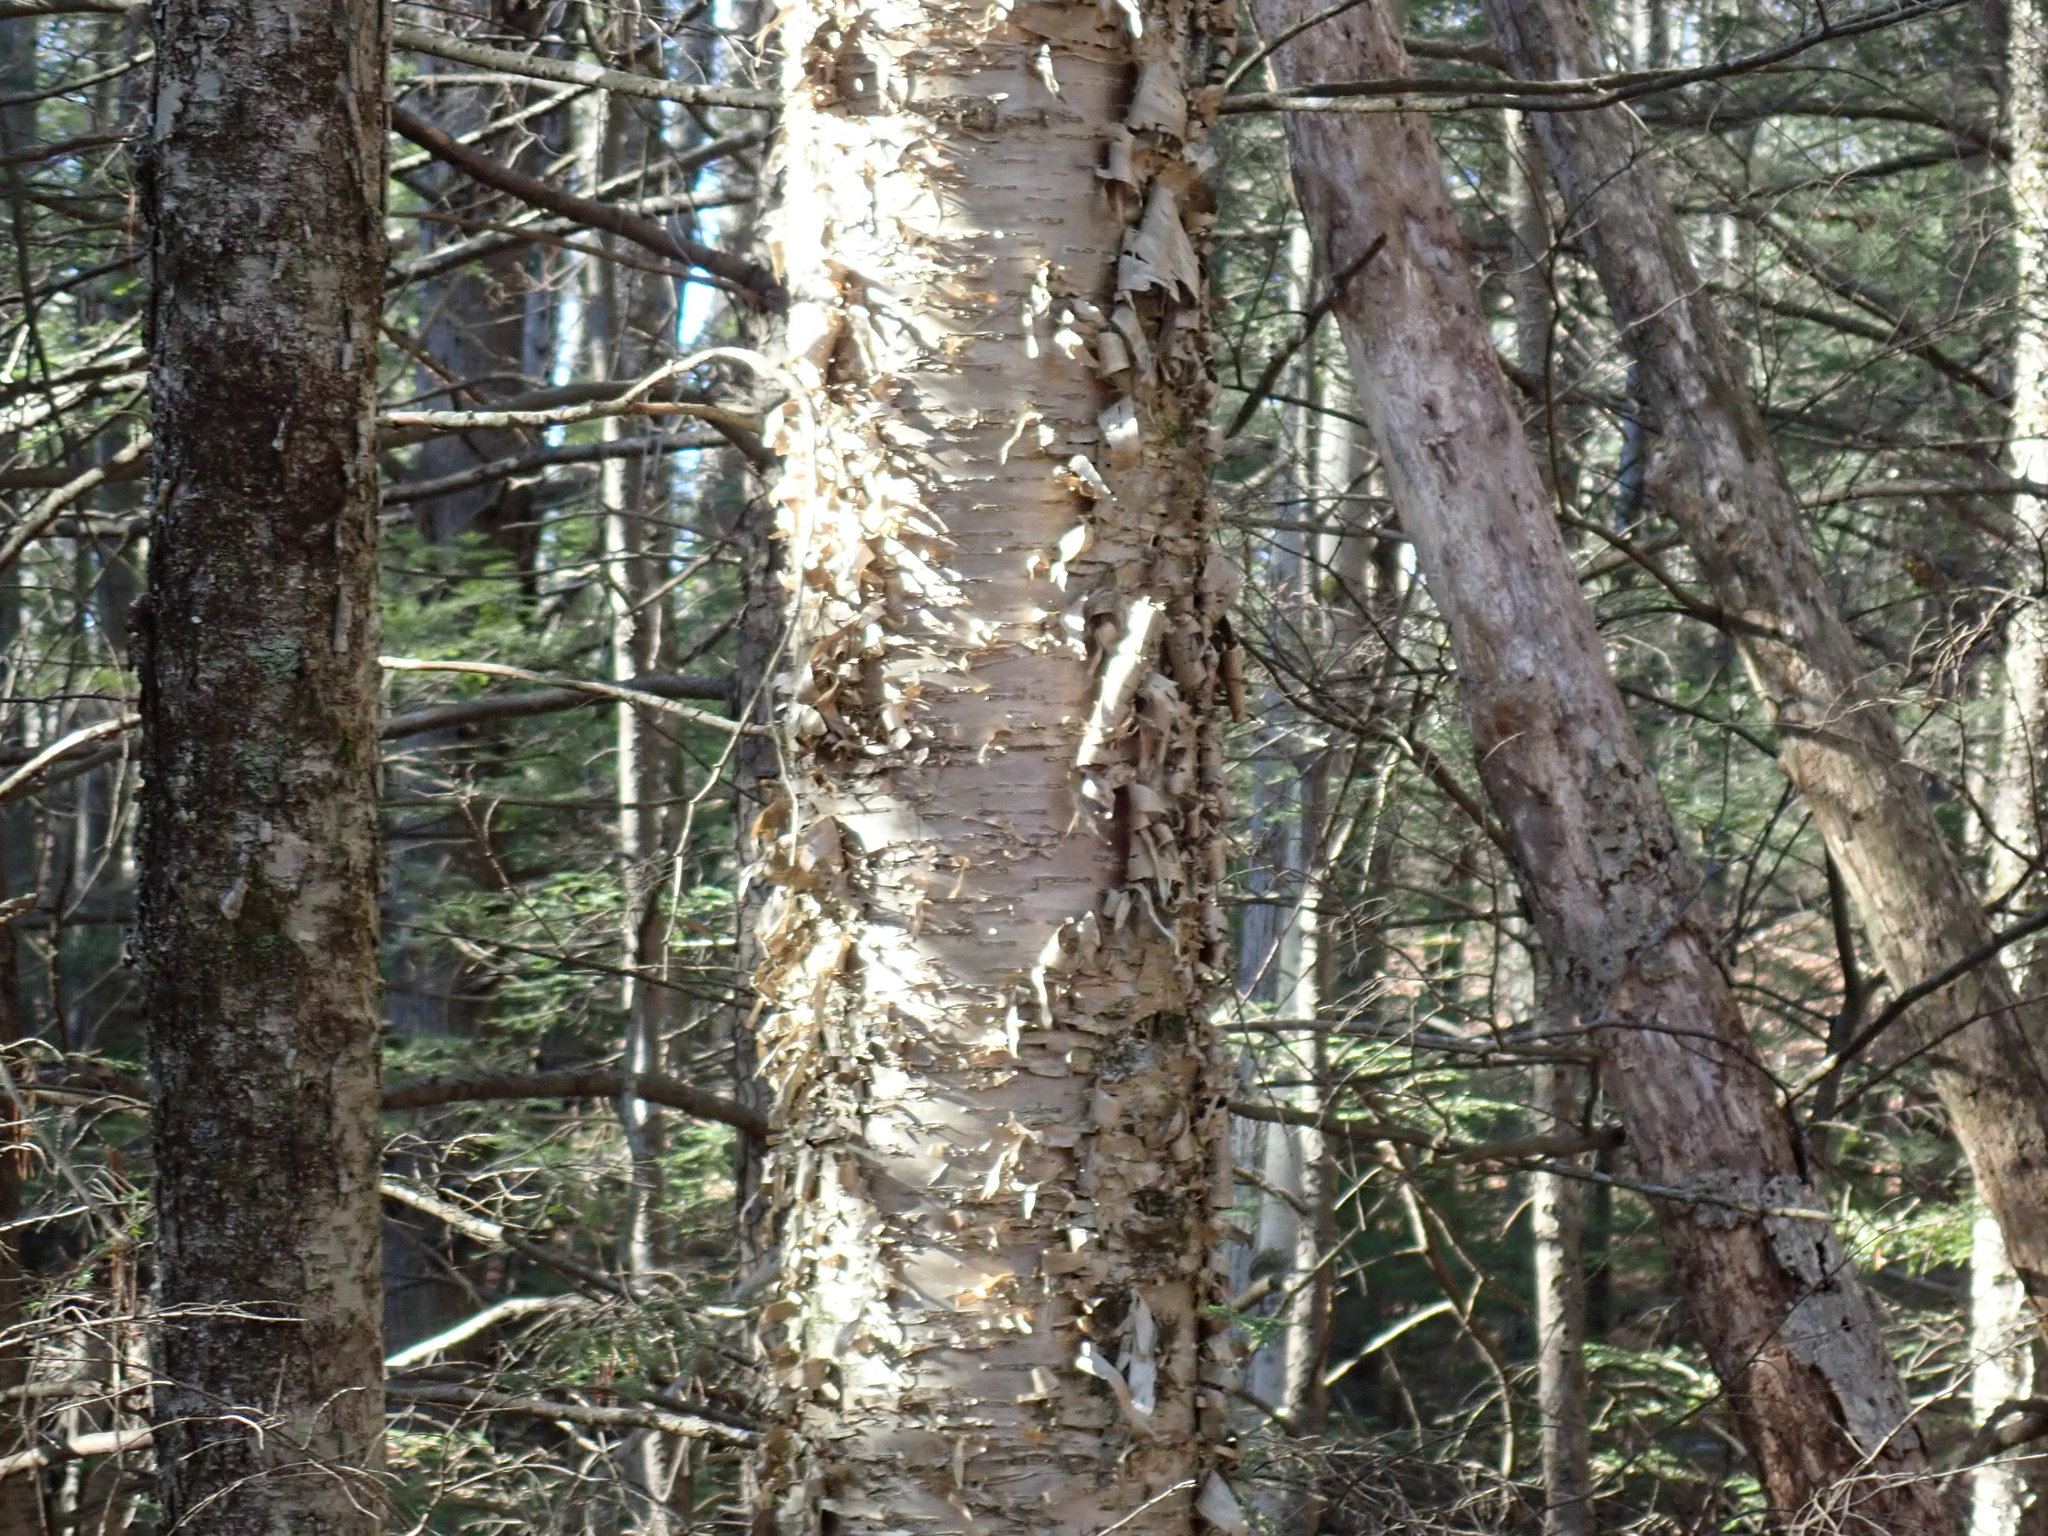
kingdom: Plantae
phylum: Tracheophyta
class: Magnoliopsida
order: Fagales
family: Betulaceae
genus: Betula
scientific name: Betula alleghaniensis
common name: Yellow birch
